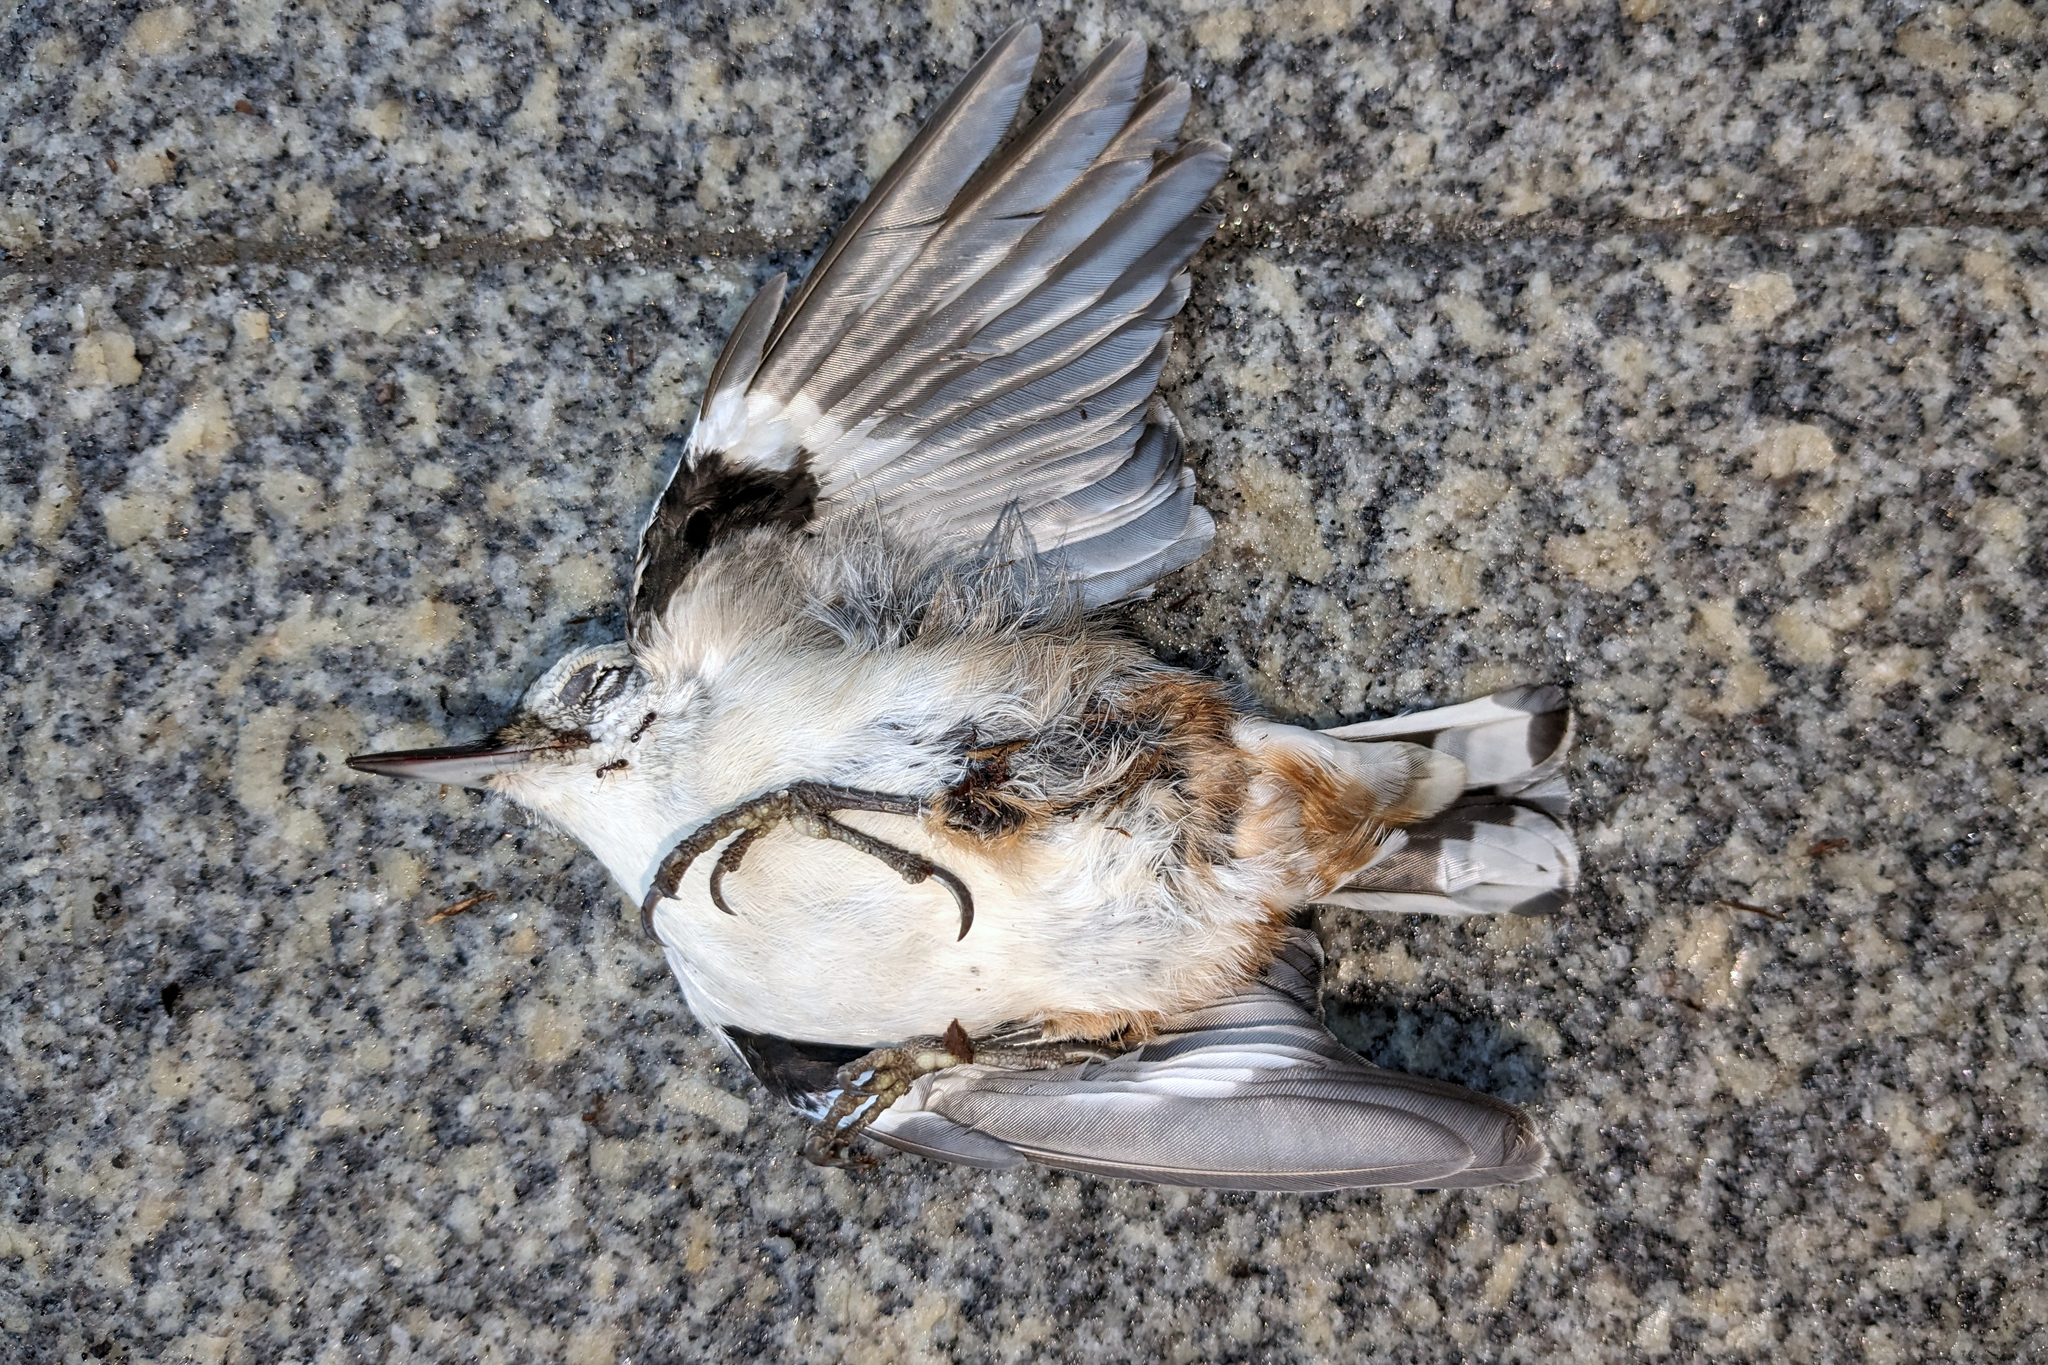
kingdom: Animalia
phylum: Chordata
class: Aves
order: Passeriformes
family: Sittidae
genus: Sitta
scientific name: Sitta carolinensis
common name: White-breasted nuthatch
